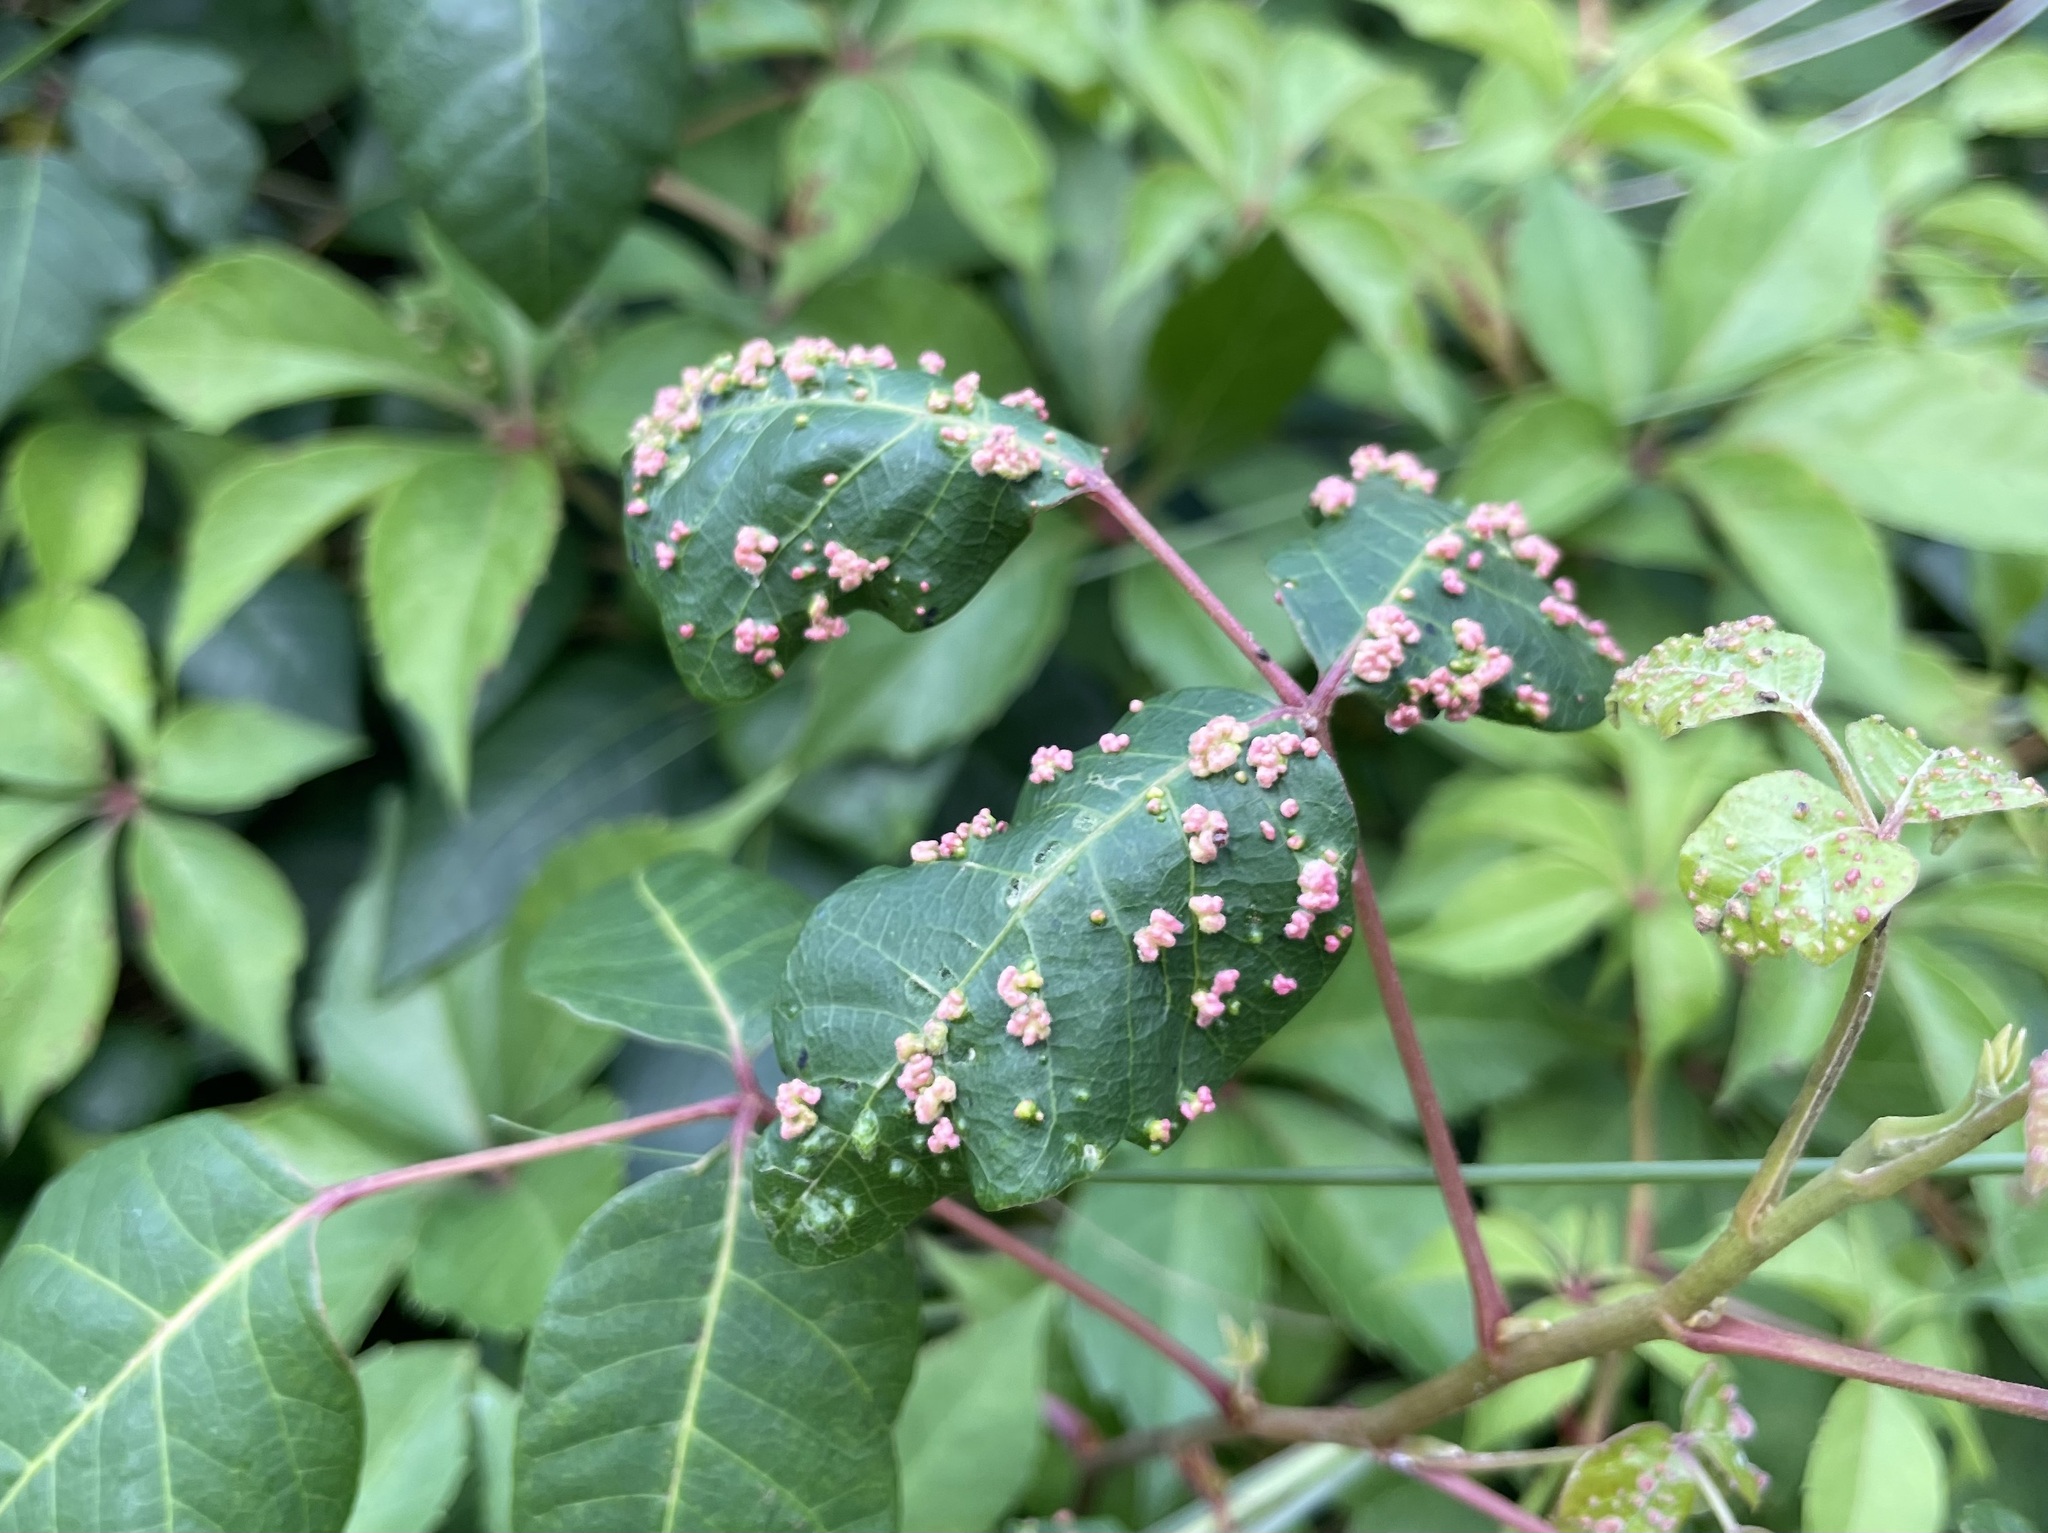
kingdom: Animalia
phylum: Arthropoda
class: Arachnida
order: Trombidiformes
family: Eriophyidae
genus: Aculops
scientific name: Aculops
